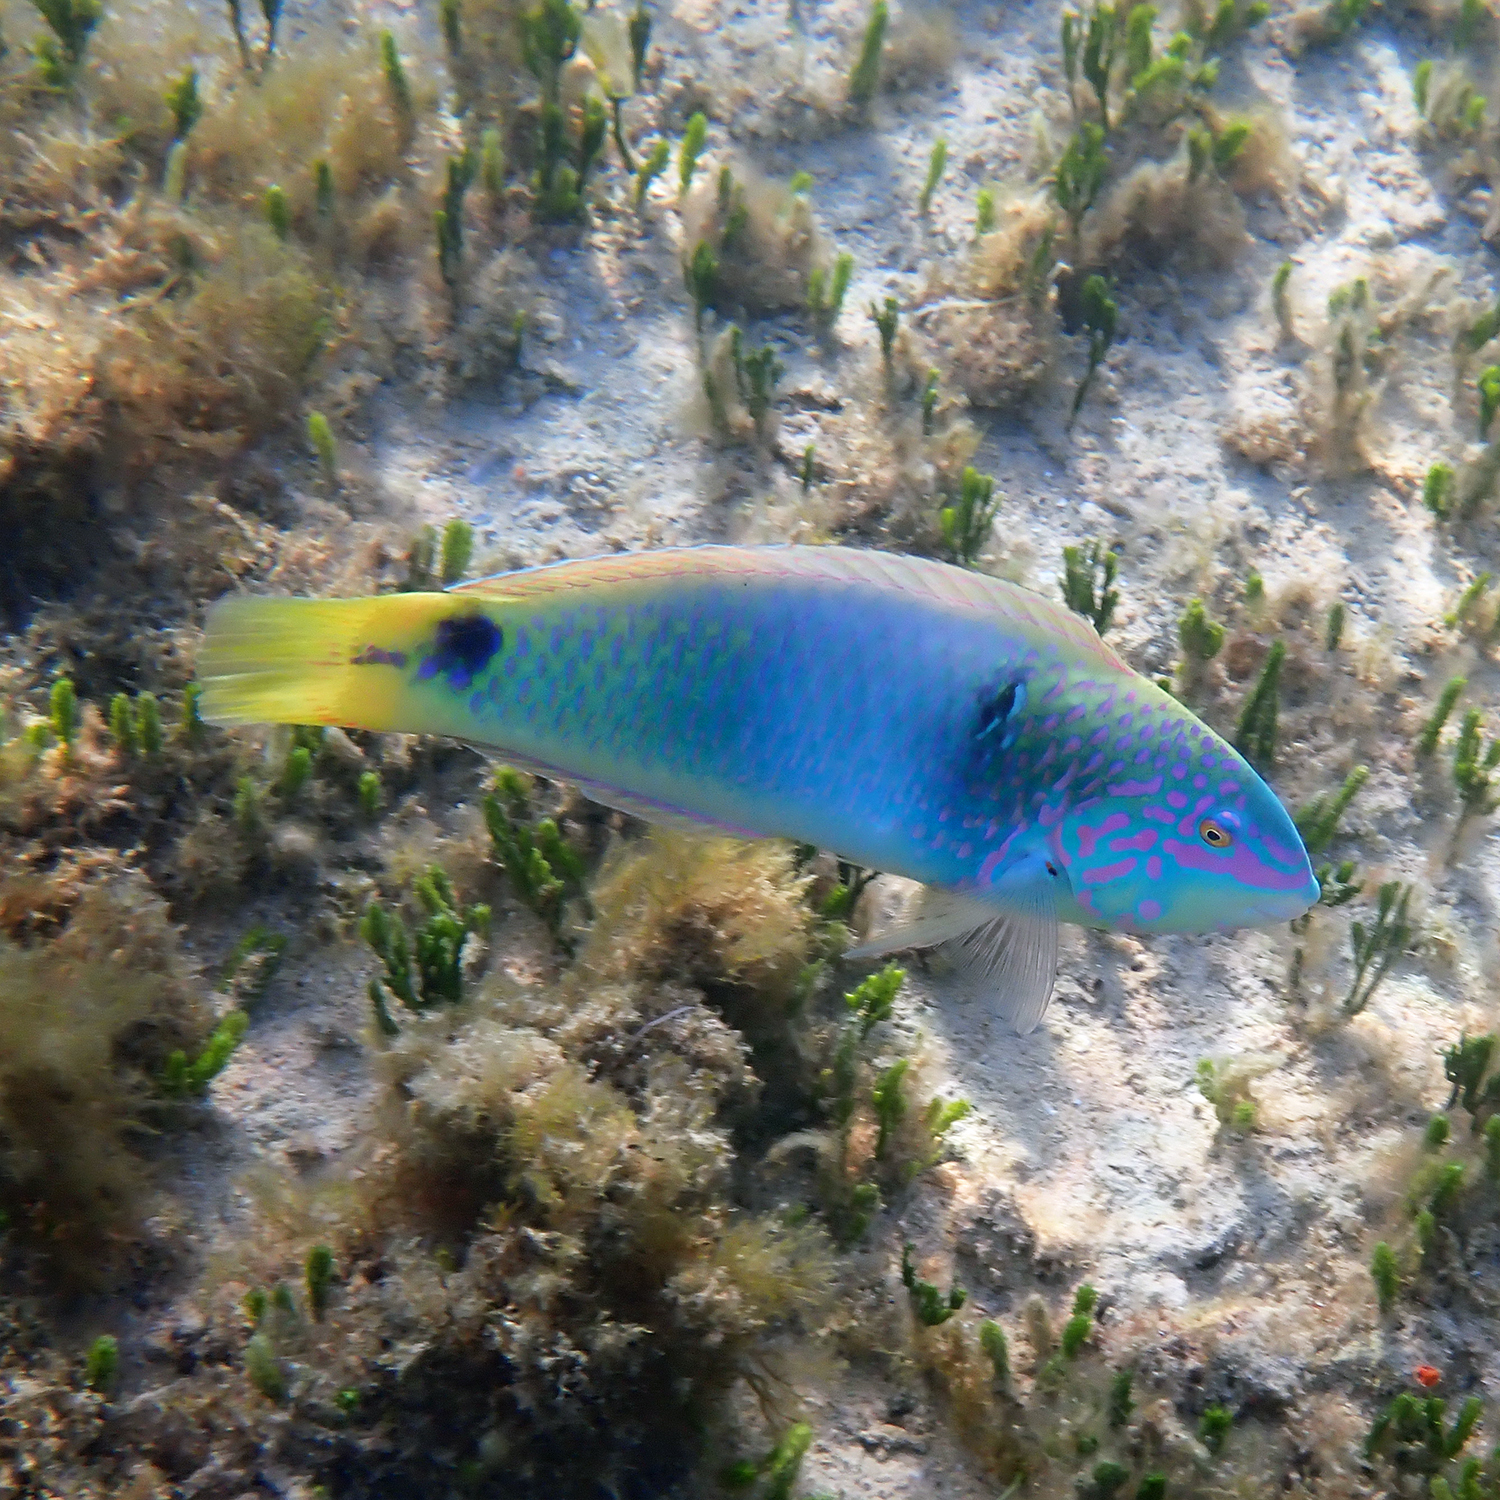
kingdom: Animalia
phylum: Chordata
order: Perciformes
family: Labridae
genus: Halichoeres
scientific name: Halichoeres trimaculatus
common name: Three-spot wrasse
